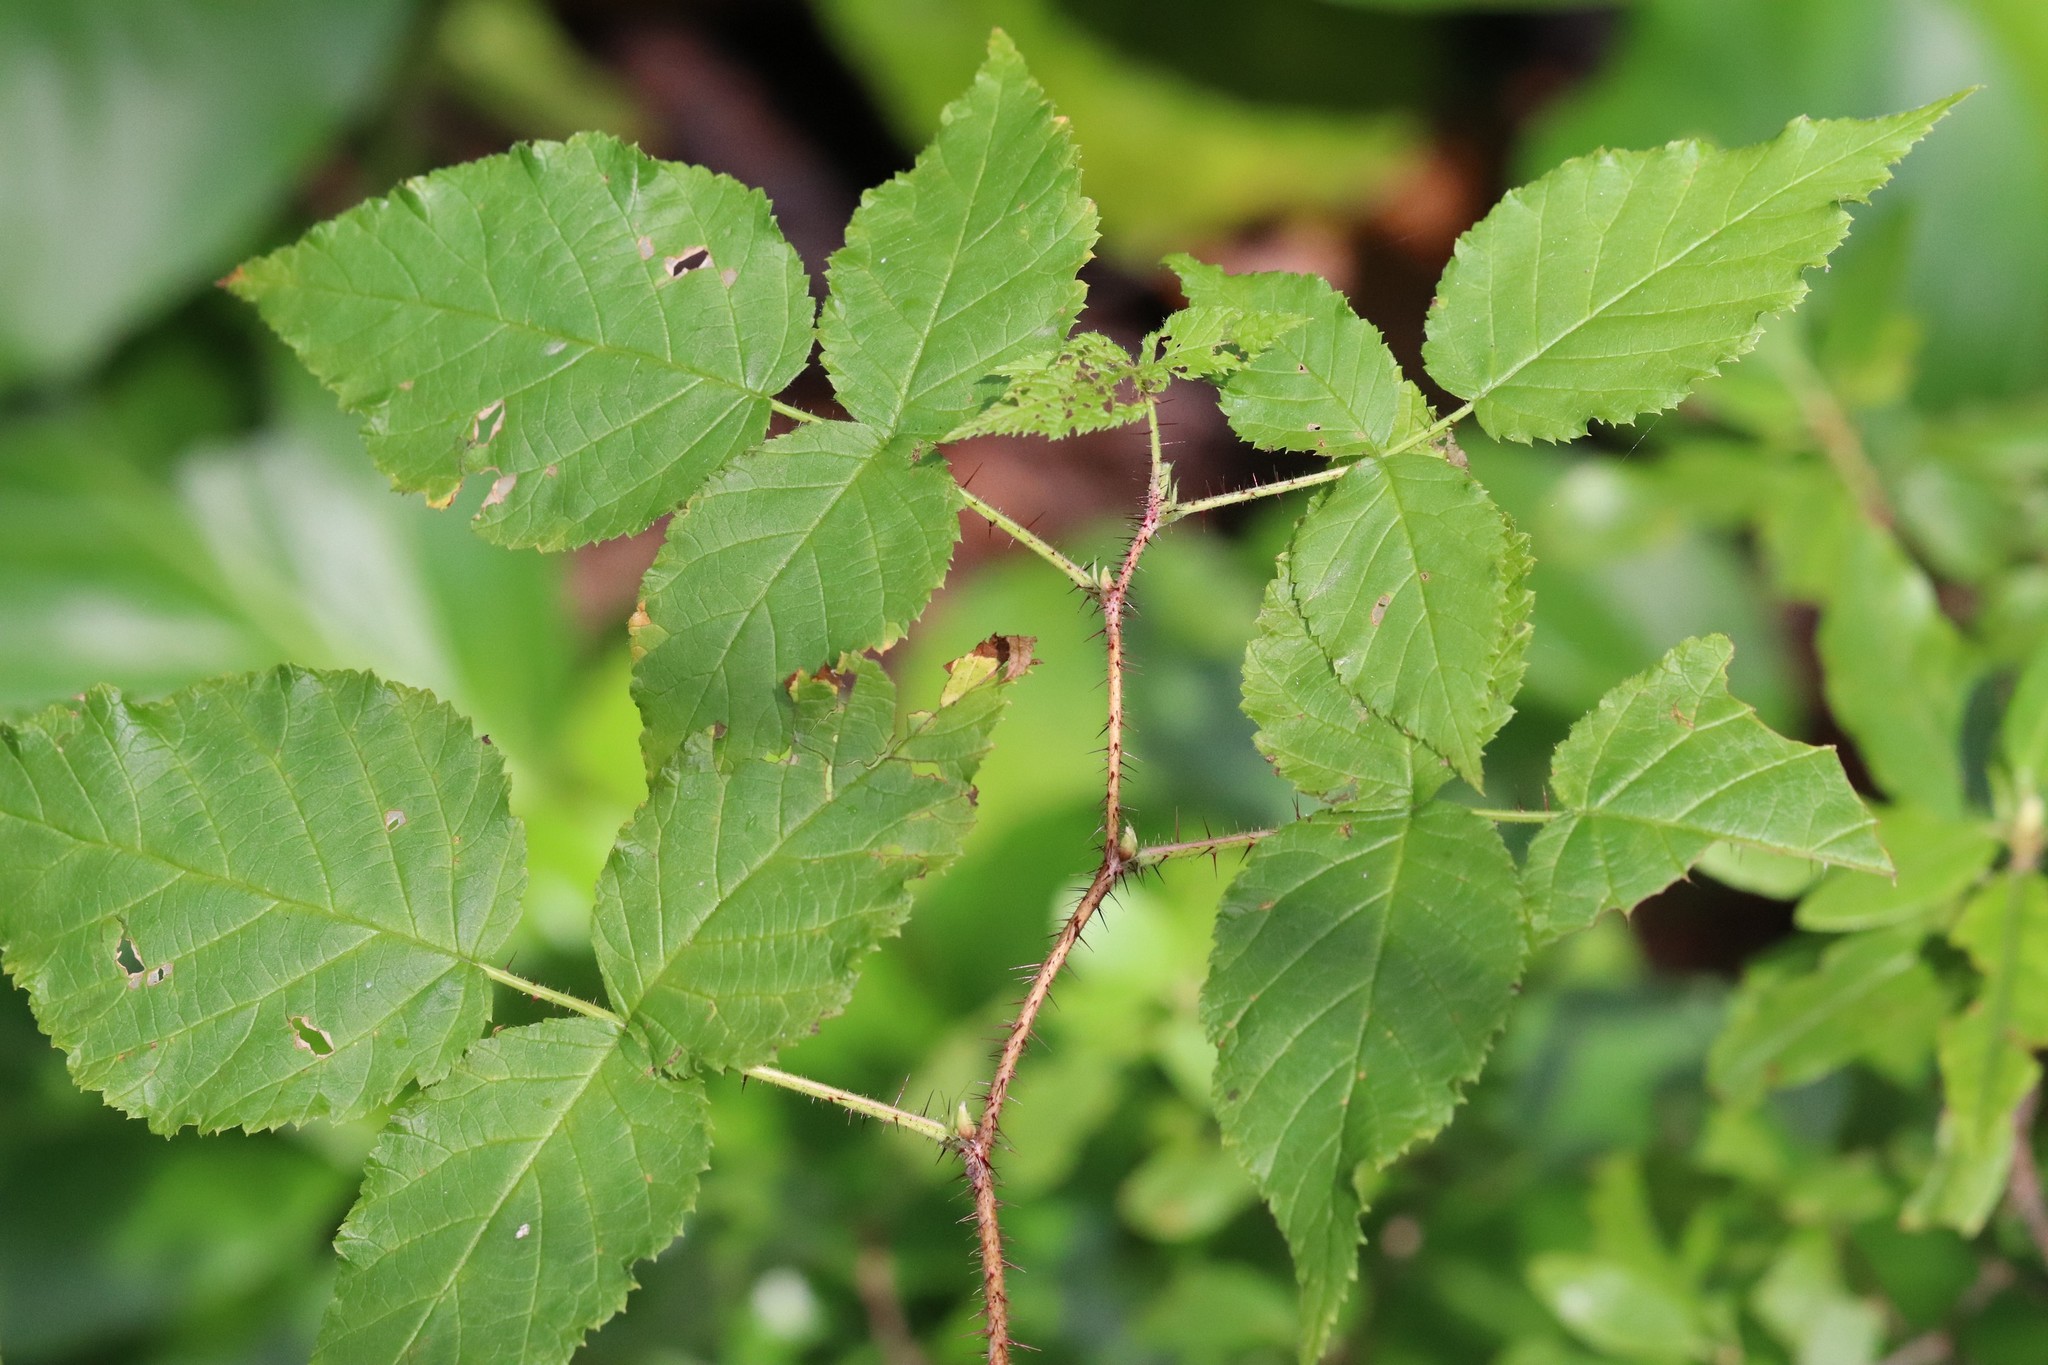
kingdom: Plantae
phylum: Tracheophyta
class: Magnoliopsida
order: Rosales
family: Rosaceae
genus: Rubus
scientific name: Rubus sachalinensis
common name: Red raspberry
